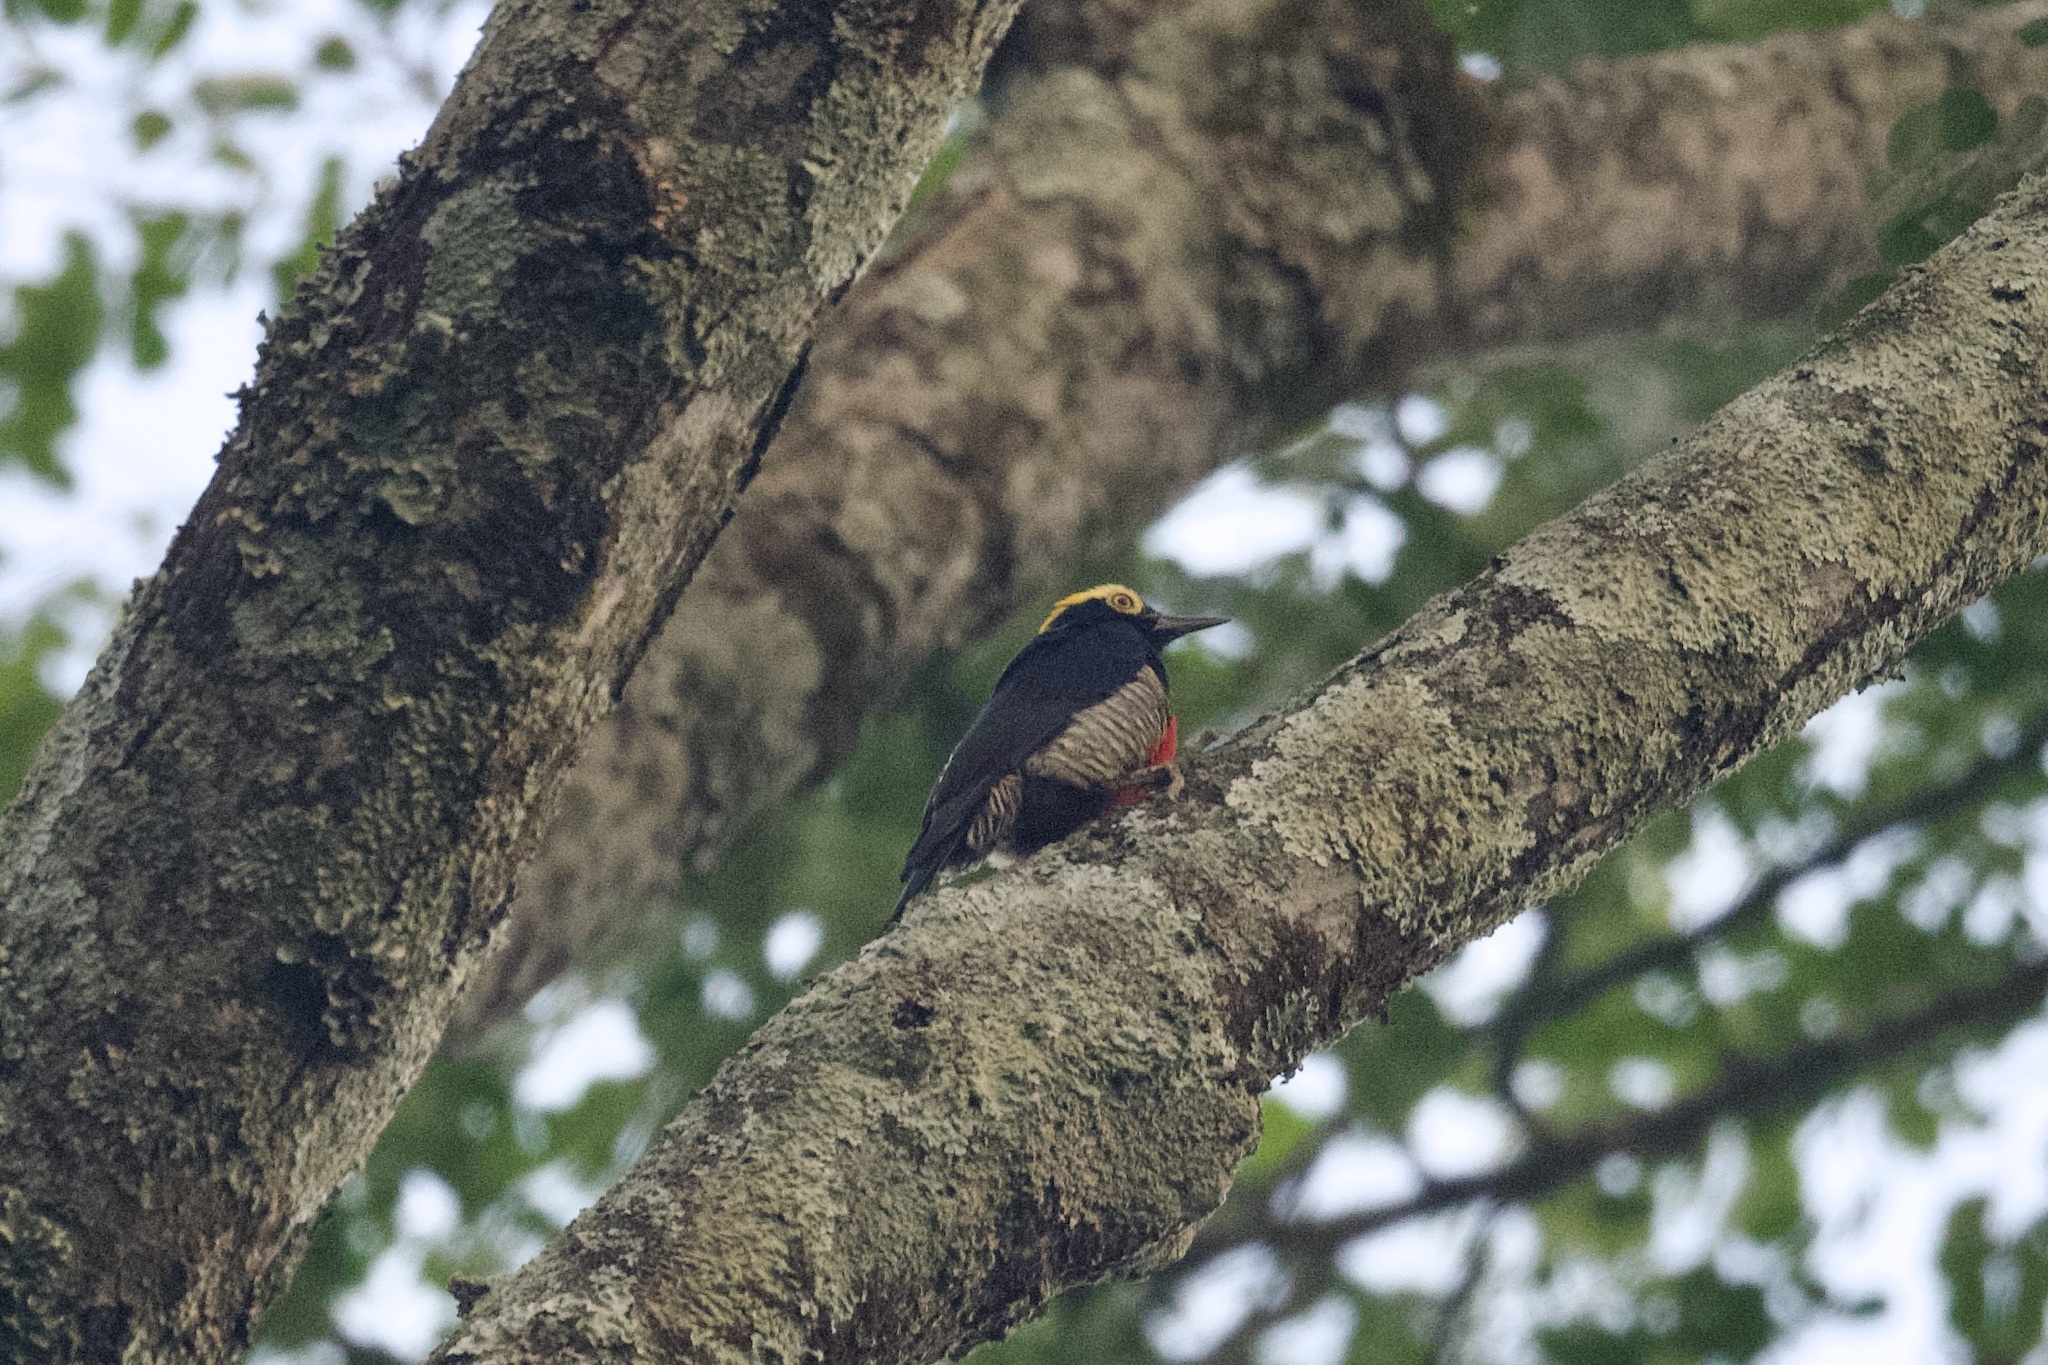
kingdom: Animalia
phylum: Chordata
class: Aves
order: Piciformes
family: Picidae
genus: Melanerpes
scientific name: Melanerpes cruentatus
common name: Yellow-tufted woodpecker
